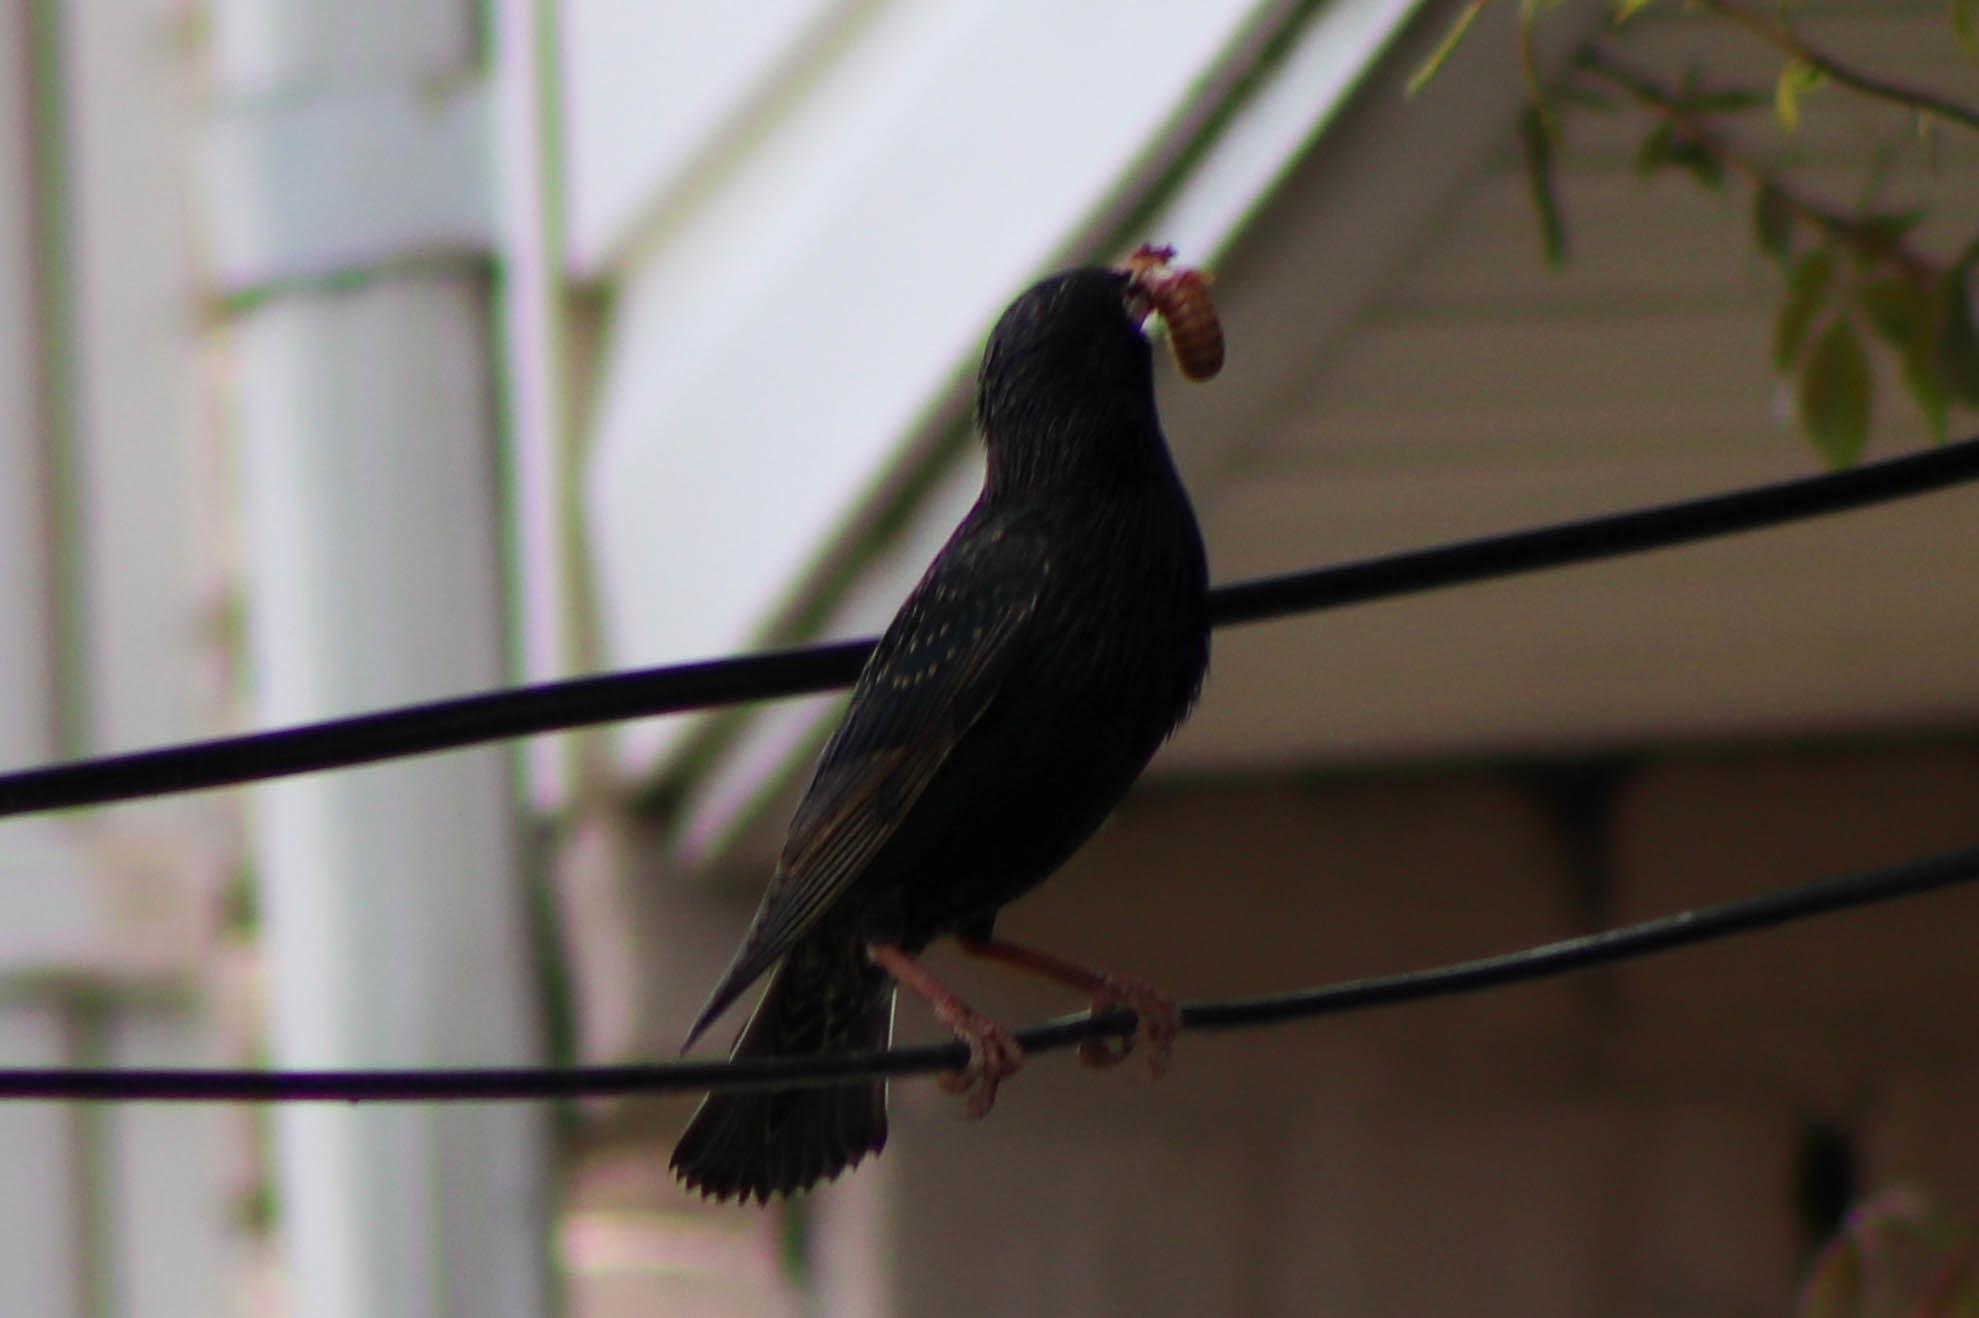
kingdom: Animalia
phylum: Arthropoda
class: Insecta
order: Hemiptera
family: Cicadidae
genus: Magicicada
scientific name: Magicicada
